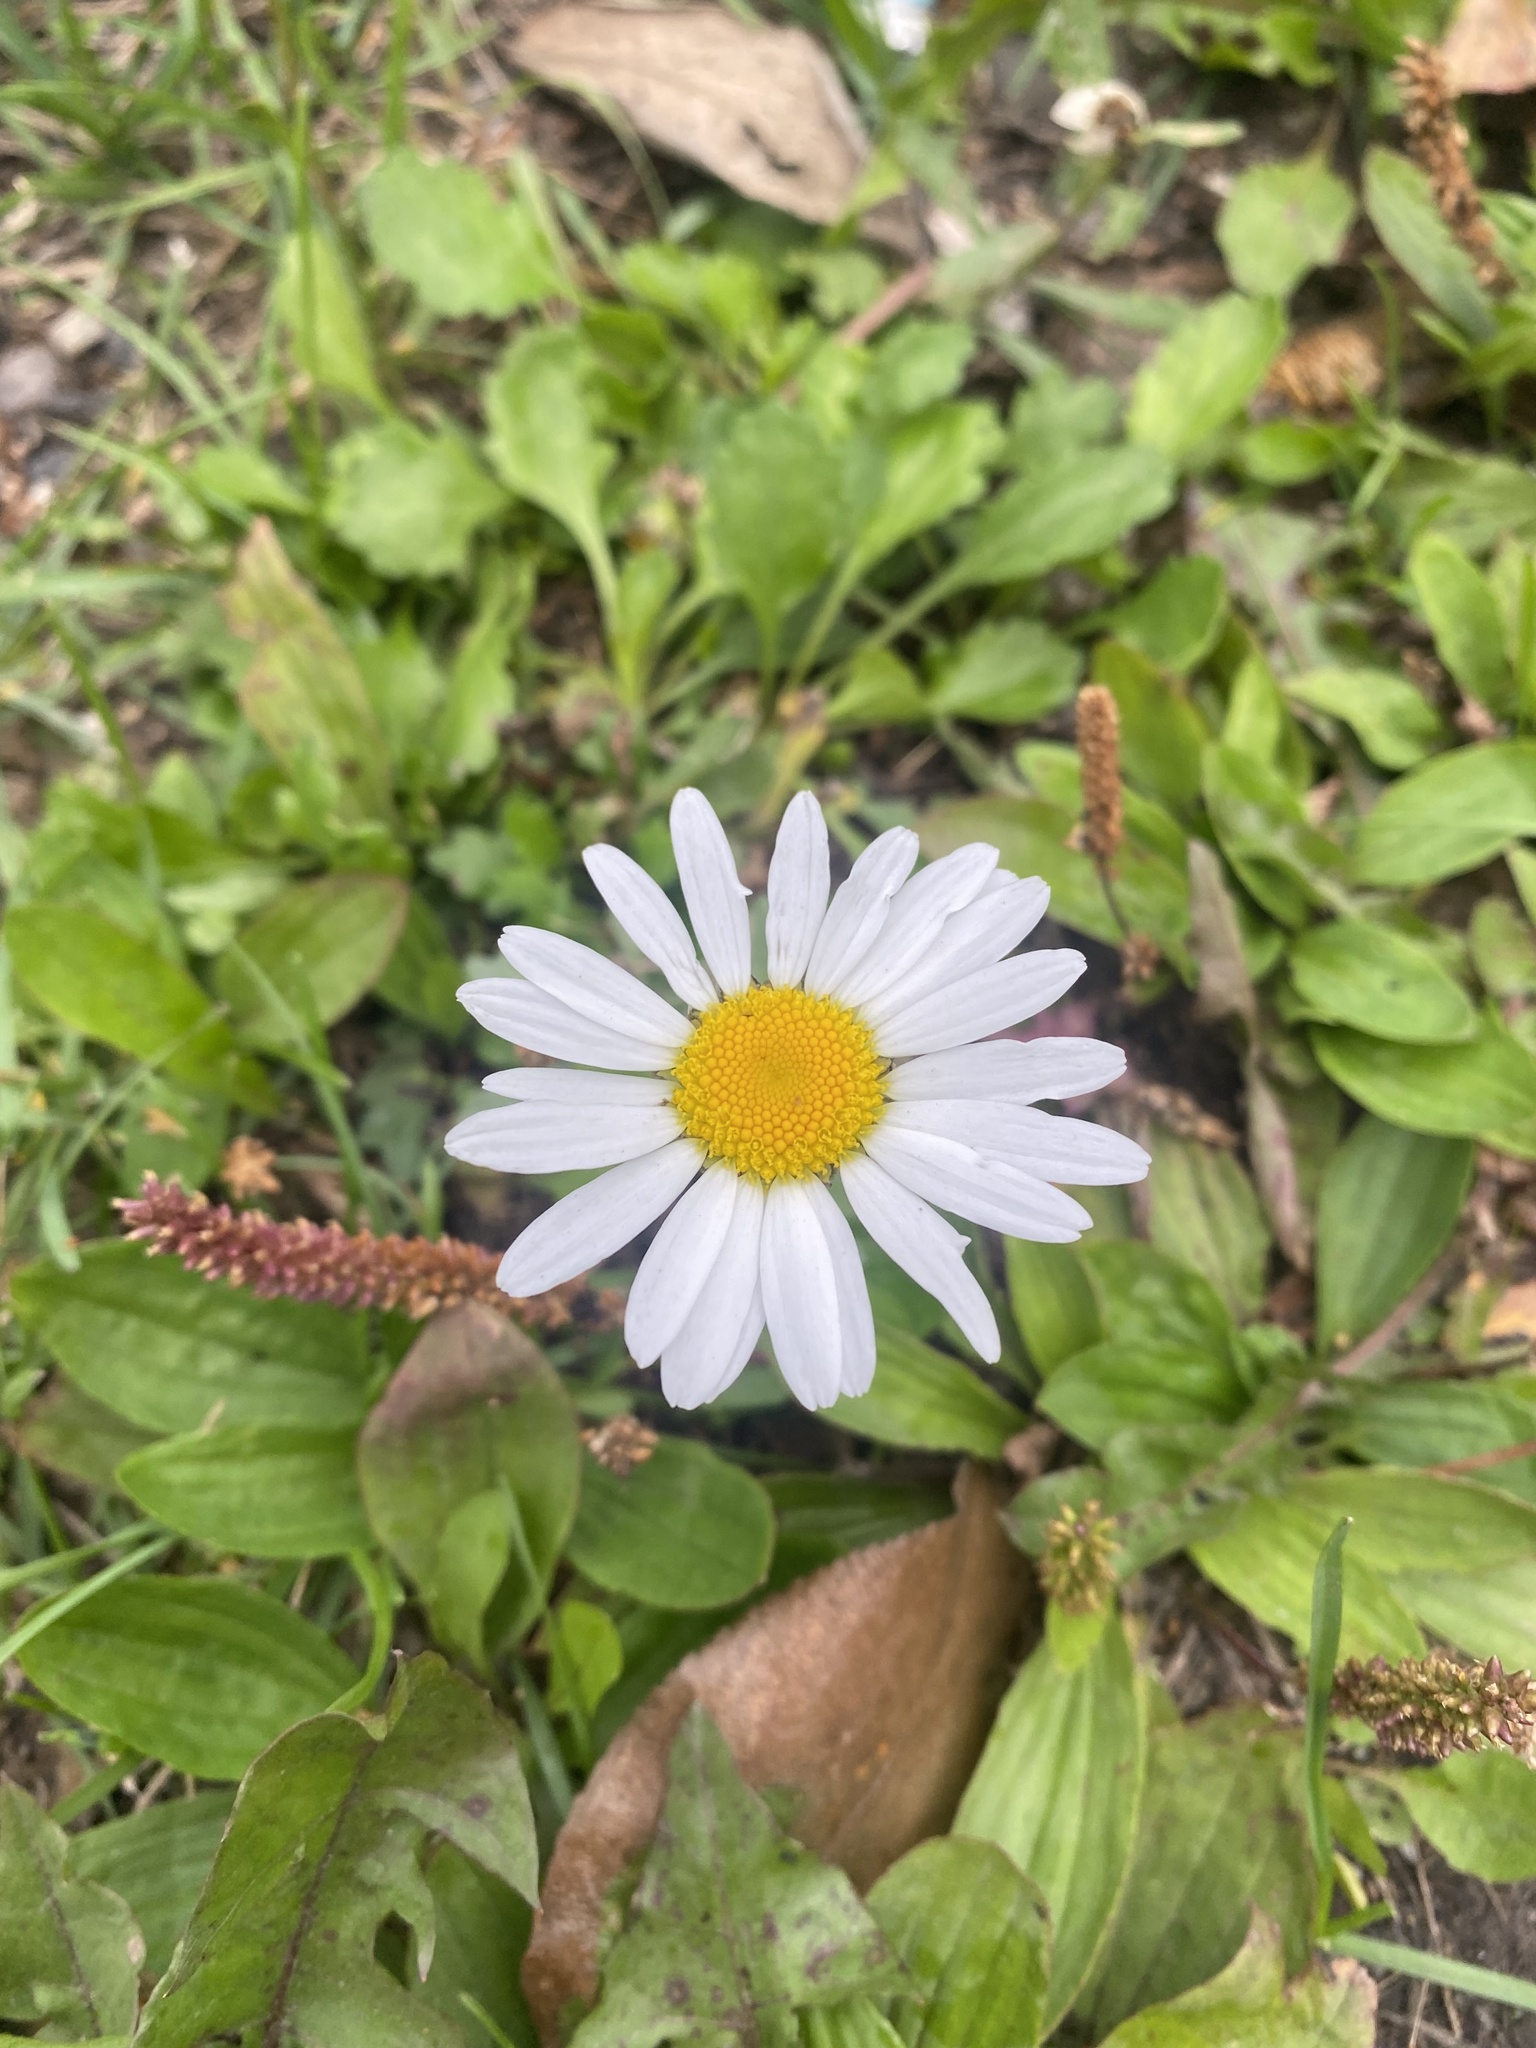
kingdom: Plantae
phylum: Tracheophyta
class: Magnoliopsida
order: Asterales
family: Asteraceae
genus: Leucanthemum
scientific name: Leucanthemum vulgare
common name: Oxeye daisy
